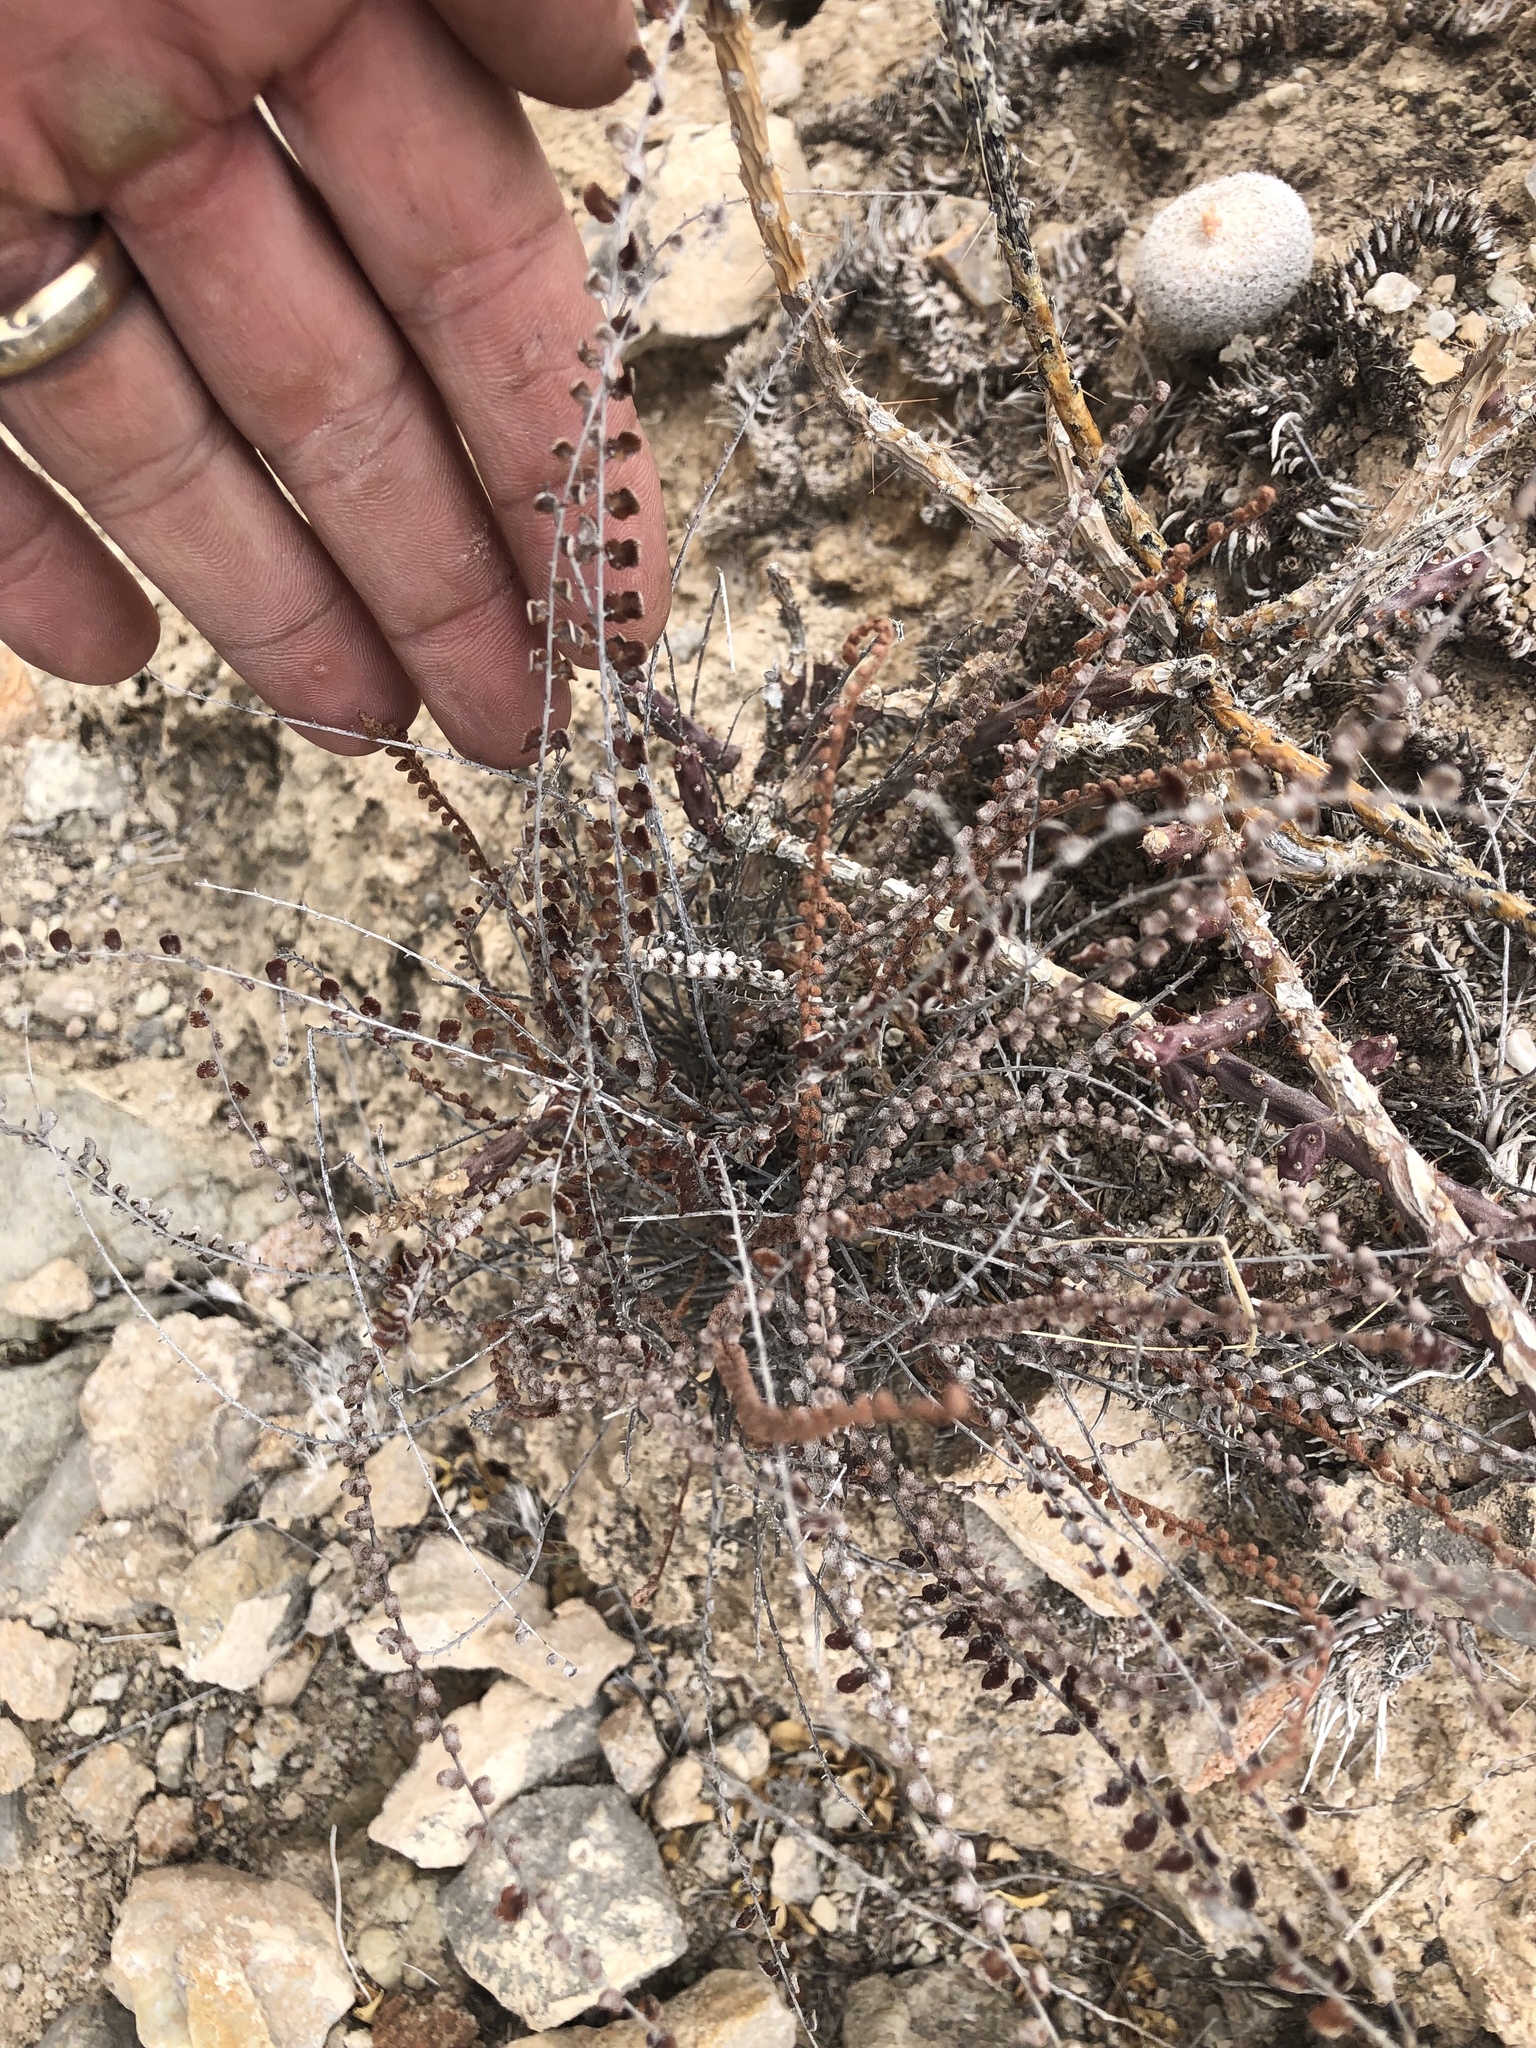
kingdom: Plantae
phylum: Tracheophyta
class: Polypodiopsida
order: Polypodiales
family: Pteridaceae
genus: Astrolepis
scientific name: Astrolepis cochisensis
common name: Scaly cloak fern
